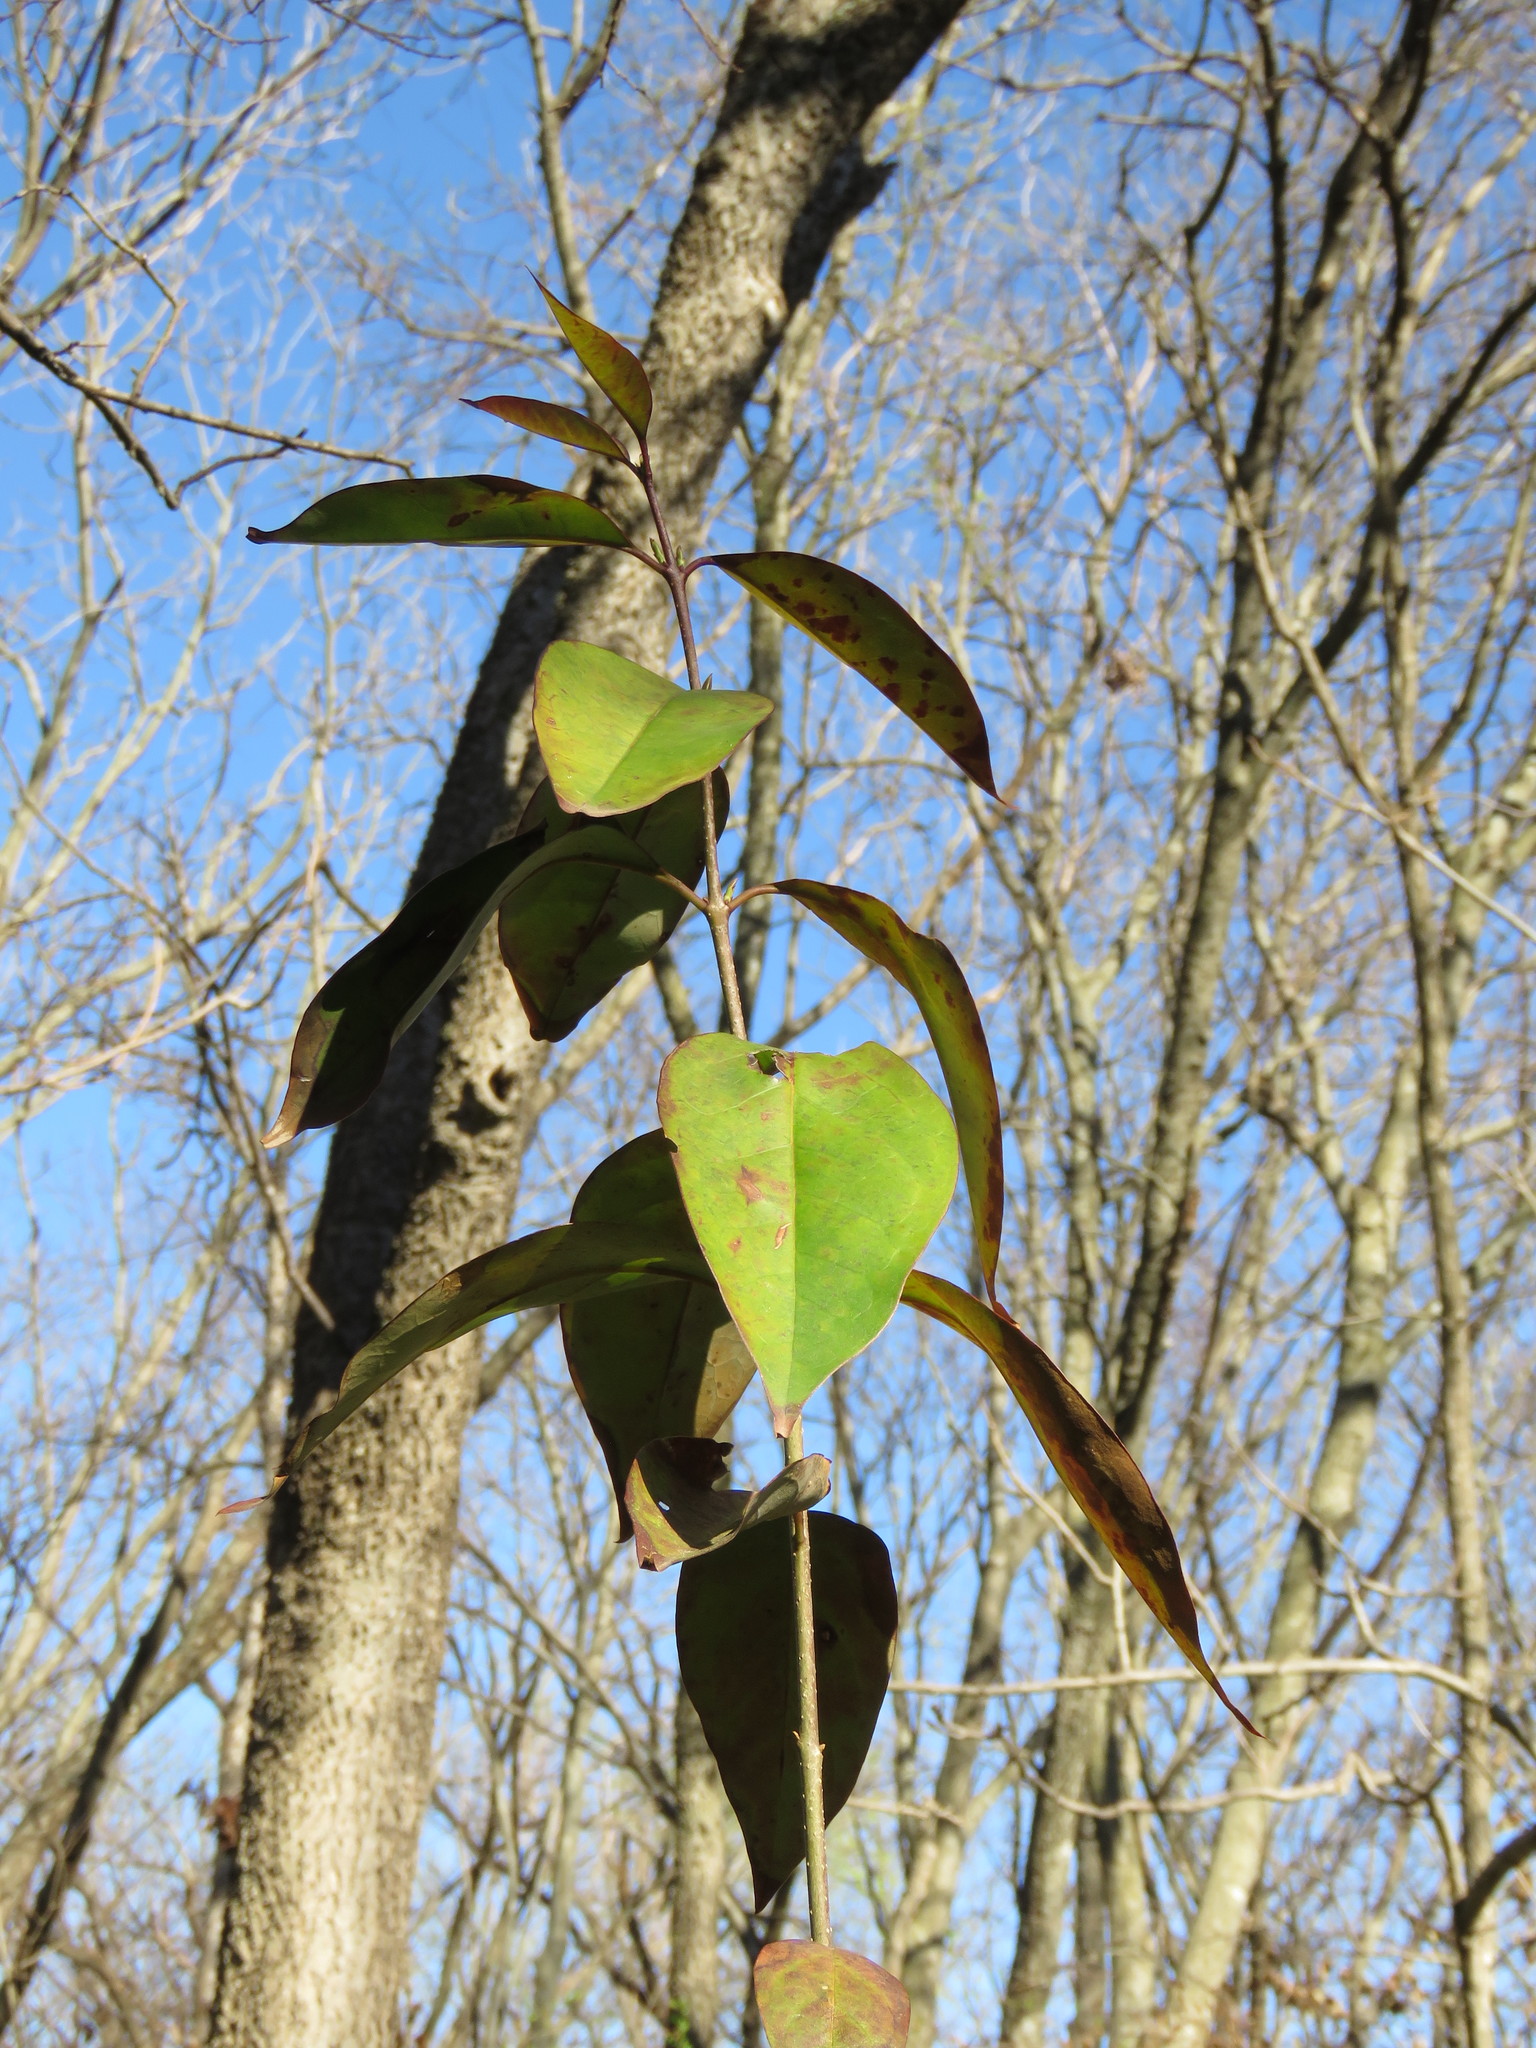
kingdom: Plantae
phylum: Tracheophyta
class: Magnoliopsida
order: Lamiales
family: Oleaceae
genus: Ligustrum
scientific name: Ligustrum lucidum
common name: Glossy privet
